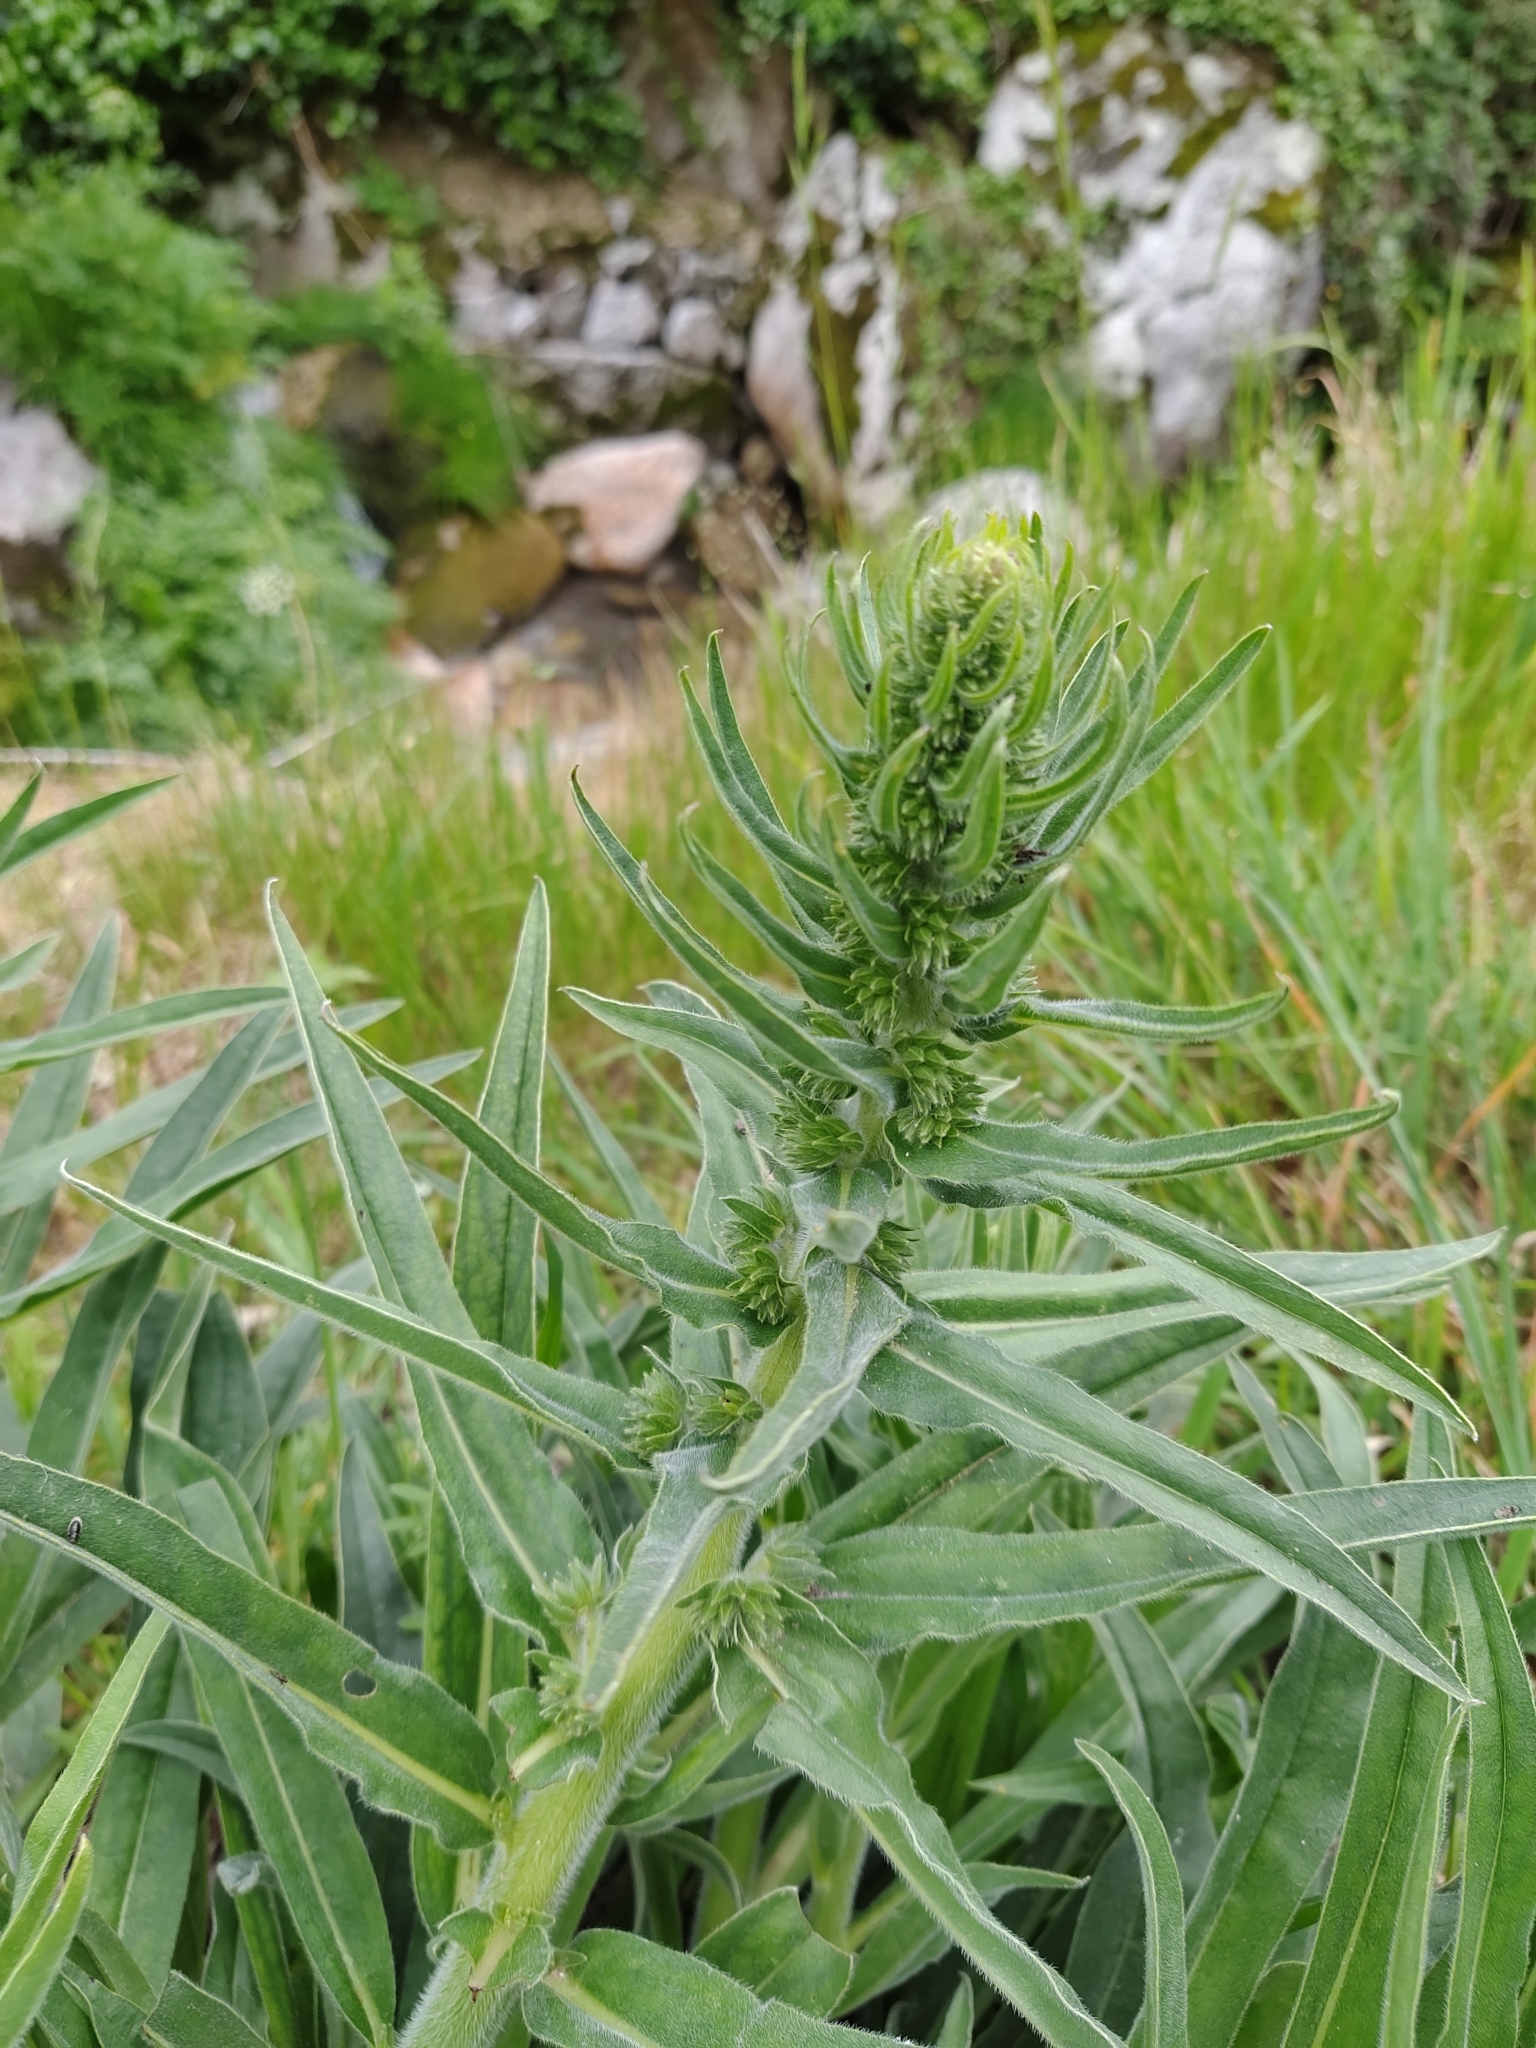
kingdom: Plantae
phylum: Tracheophyta
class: Magnoliopsida
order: Boraginales
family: Boraginaceae
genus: Echium
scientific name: Echium lusitanicum
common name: Violet-vein viper's bugloss
